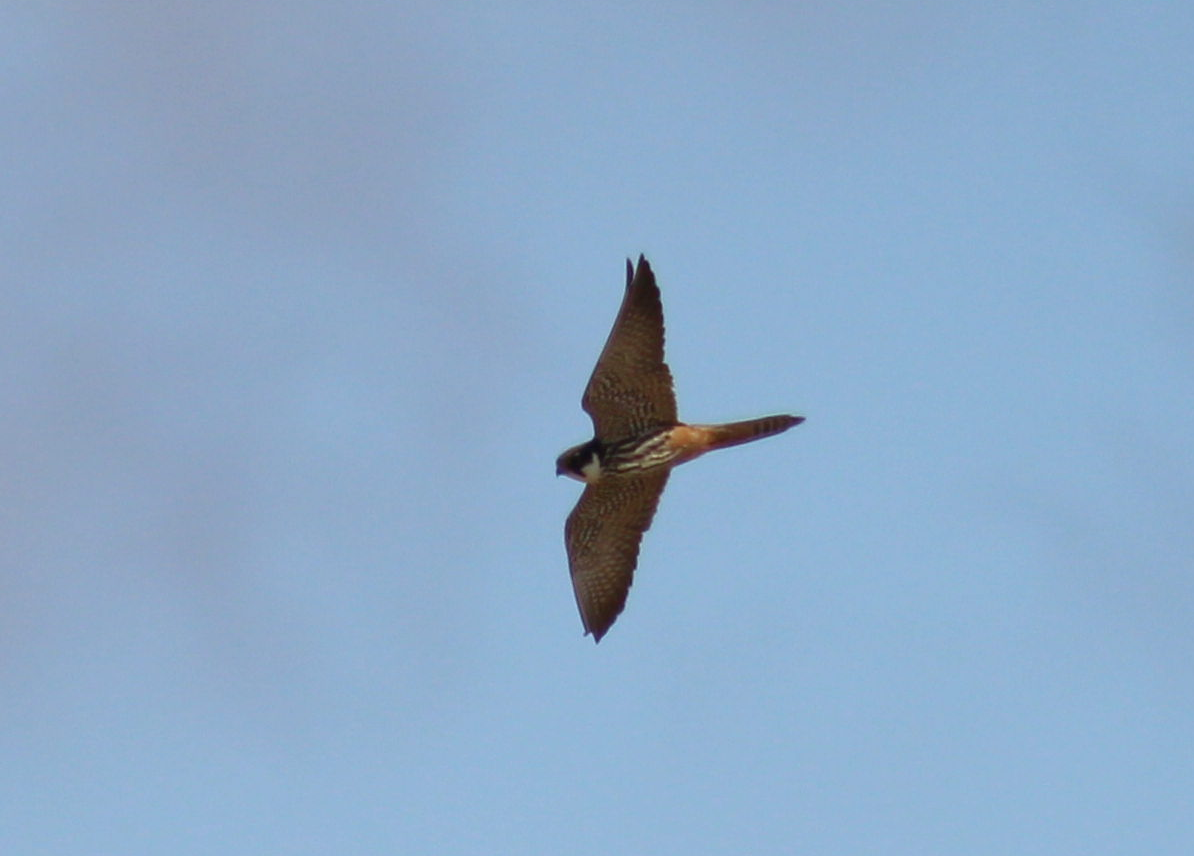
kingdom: Animalia
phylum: Chordata
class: Aves
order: Falconiformes
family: Falconidae
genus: Falco
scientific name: Falco subbuteo
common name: Eurasian hobby
